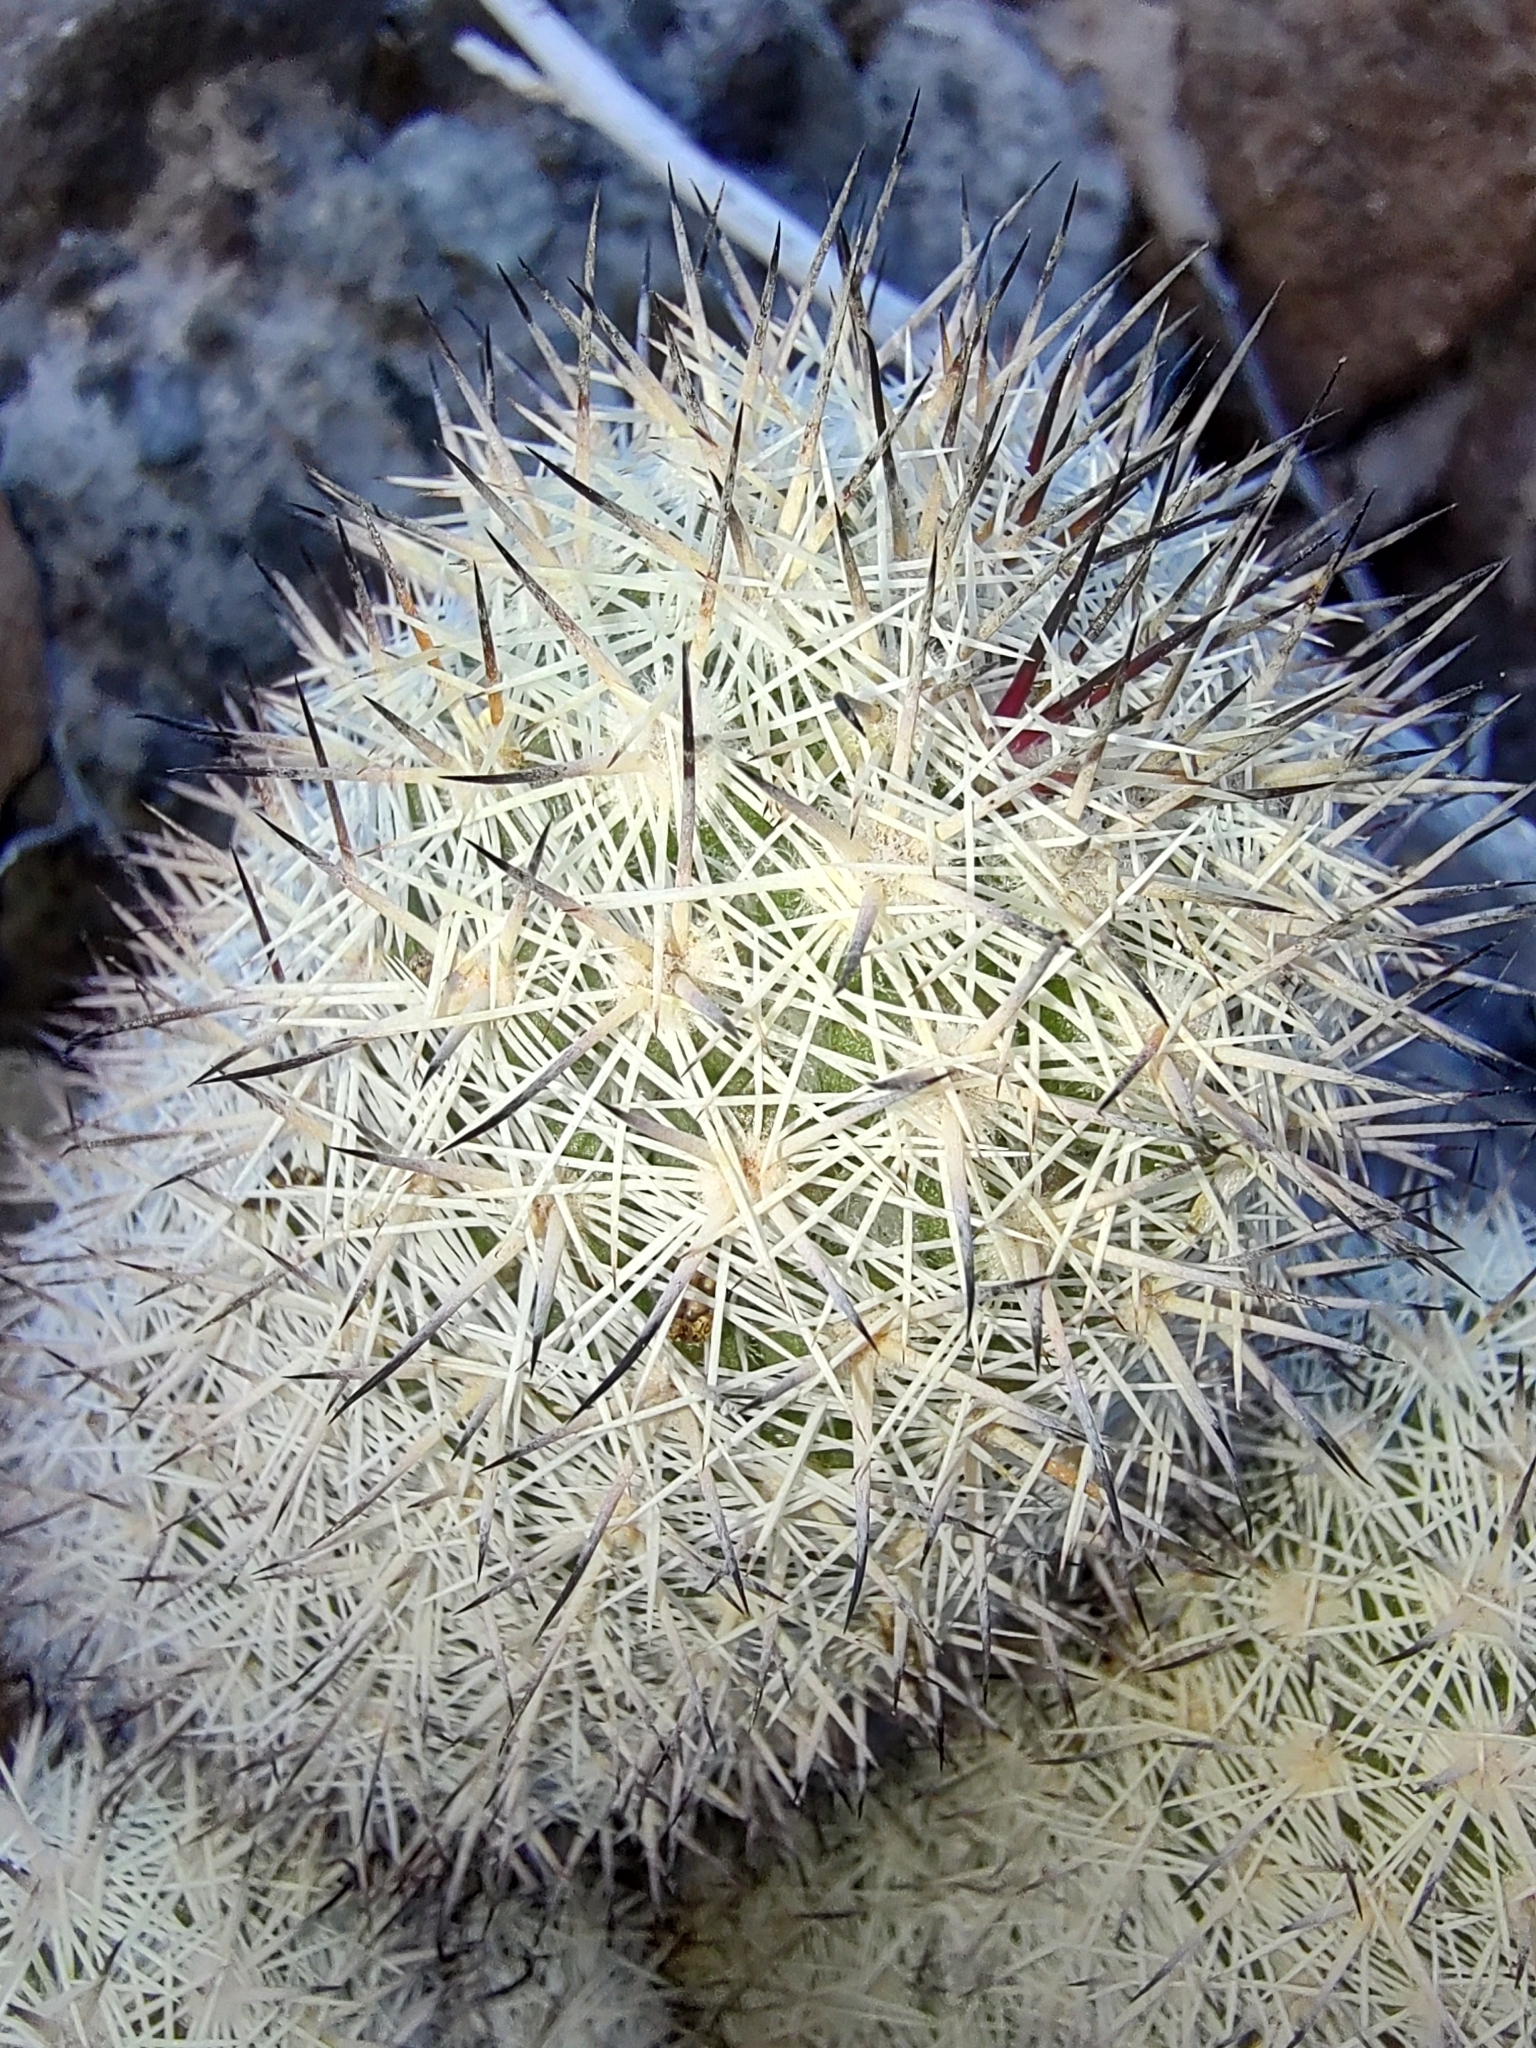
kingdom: Plantae
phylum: Tracheophyta
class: Magnoliopsida
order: Caryophyllales
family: Cactaceae
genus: Cochemiea
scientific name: Cochemiea albicans
